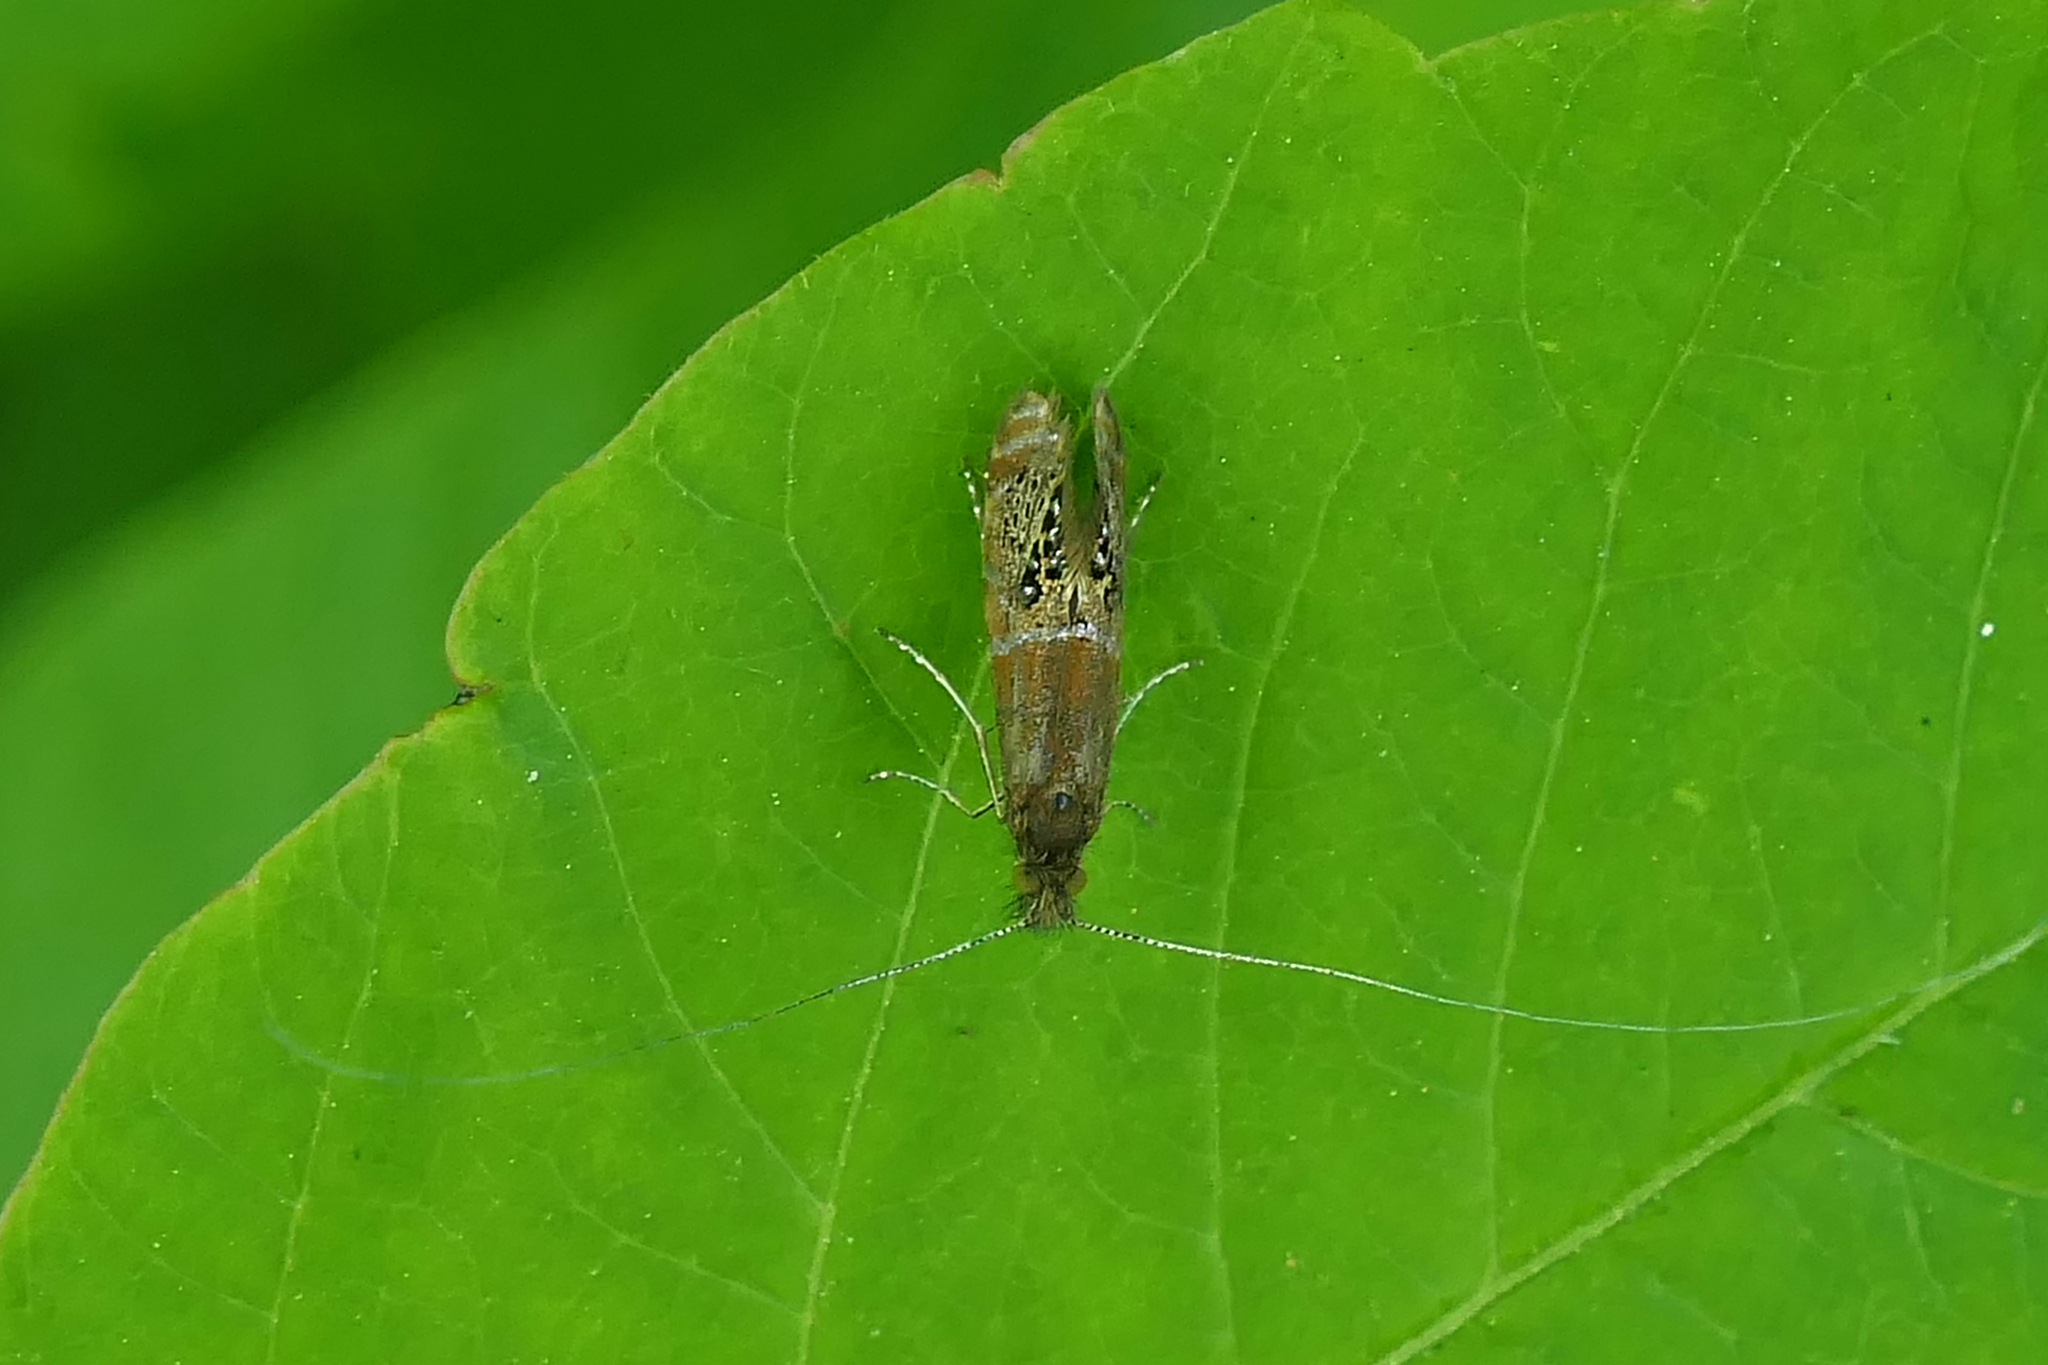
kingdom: Animalia
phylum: Arthropoda
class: Insecta
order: Lepidoptera
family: Adelidae
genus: Adela
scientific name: Adela ridingsella
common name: Ridings' fairy moth
